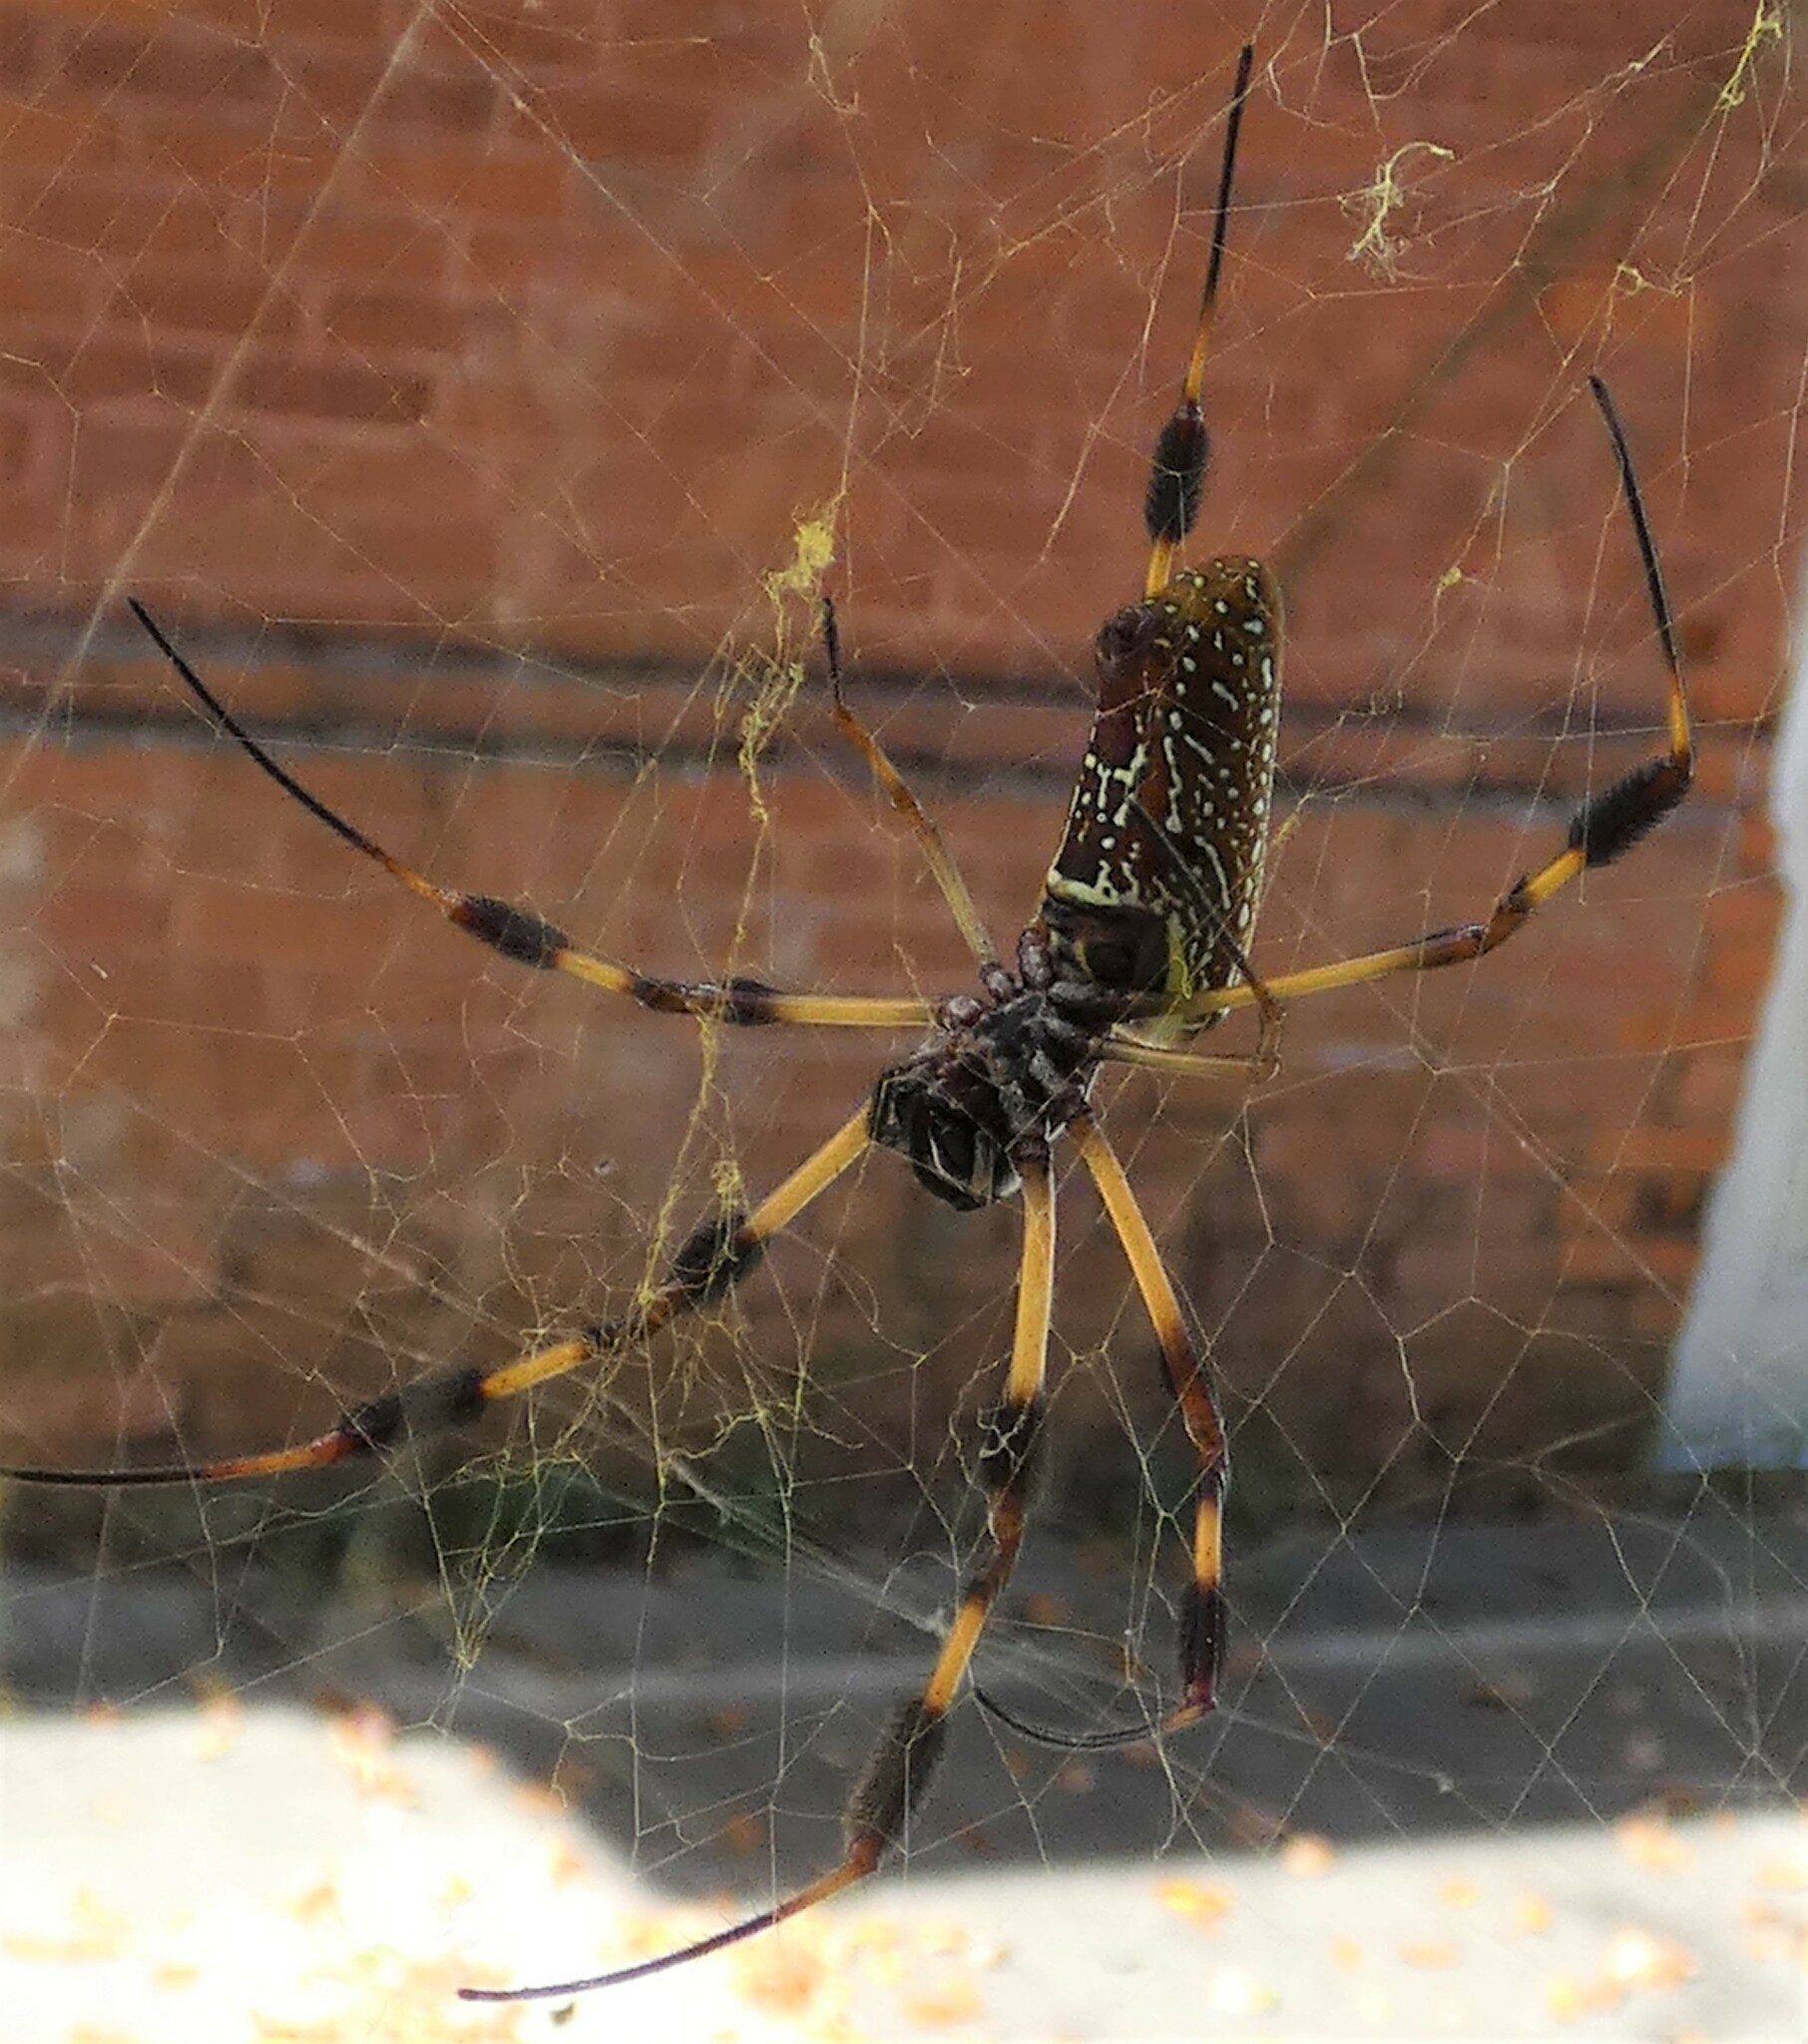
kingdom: Animalia
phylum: Arthropoda
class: Arachnida
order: Araneae
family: Araneidae
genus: Trichonephila
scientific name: Trichonephila clavipes
